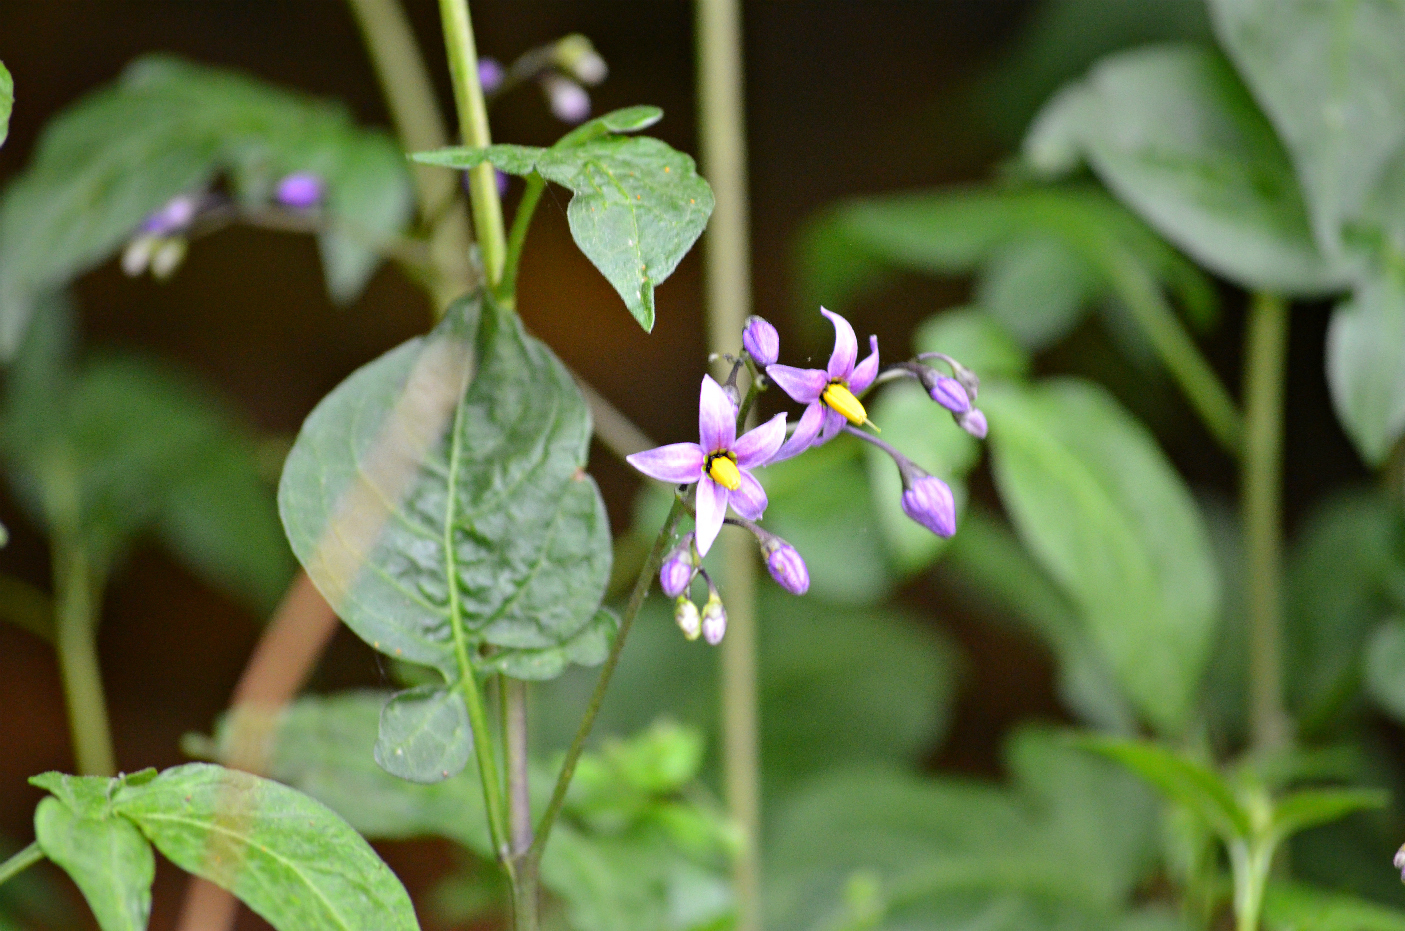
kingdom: Plantae
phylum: Tracheophyta
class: Magnoliopsida
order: Solanales
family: Solanaceae
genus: Solanum
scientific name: Solanum dulcamara
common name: Climbing nightshade
